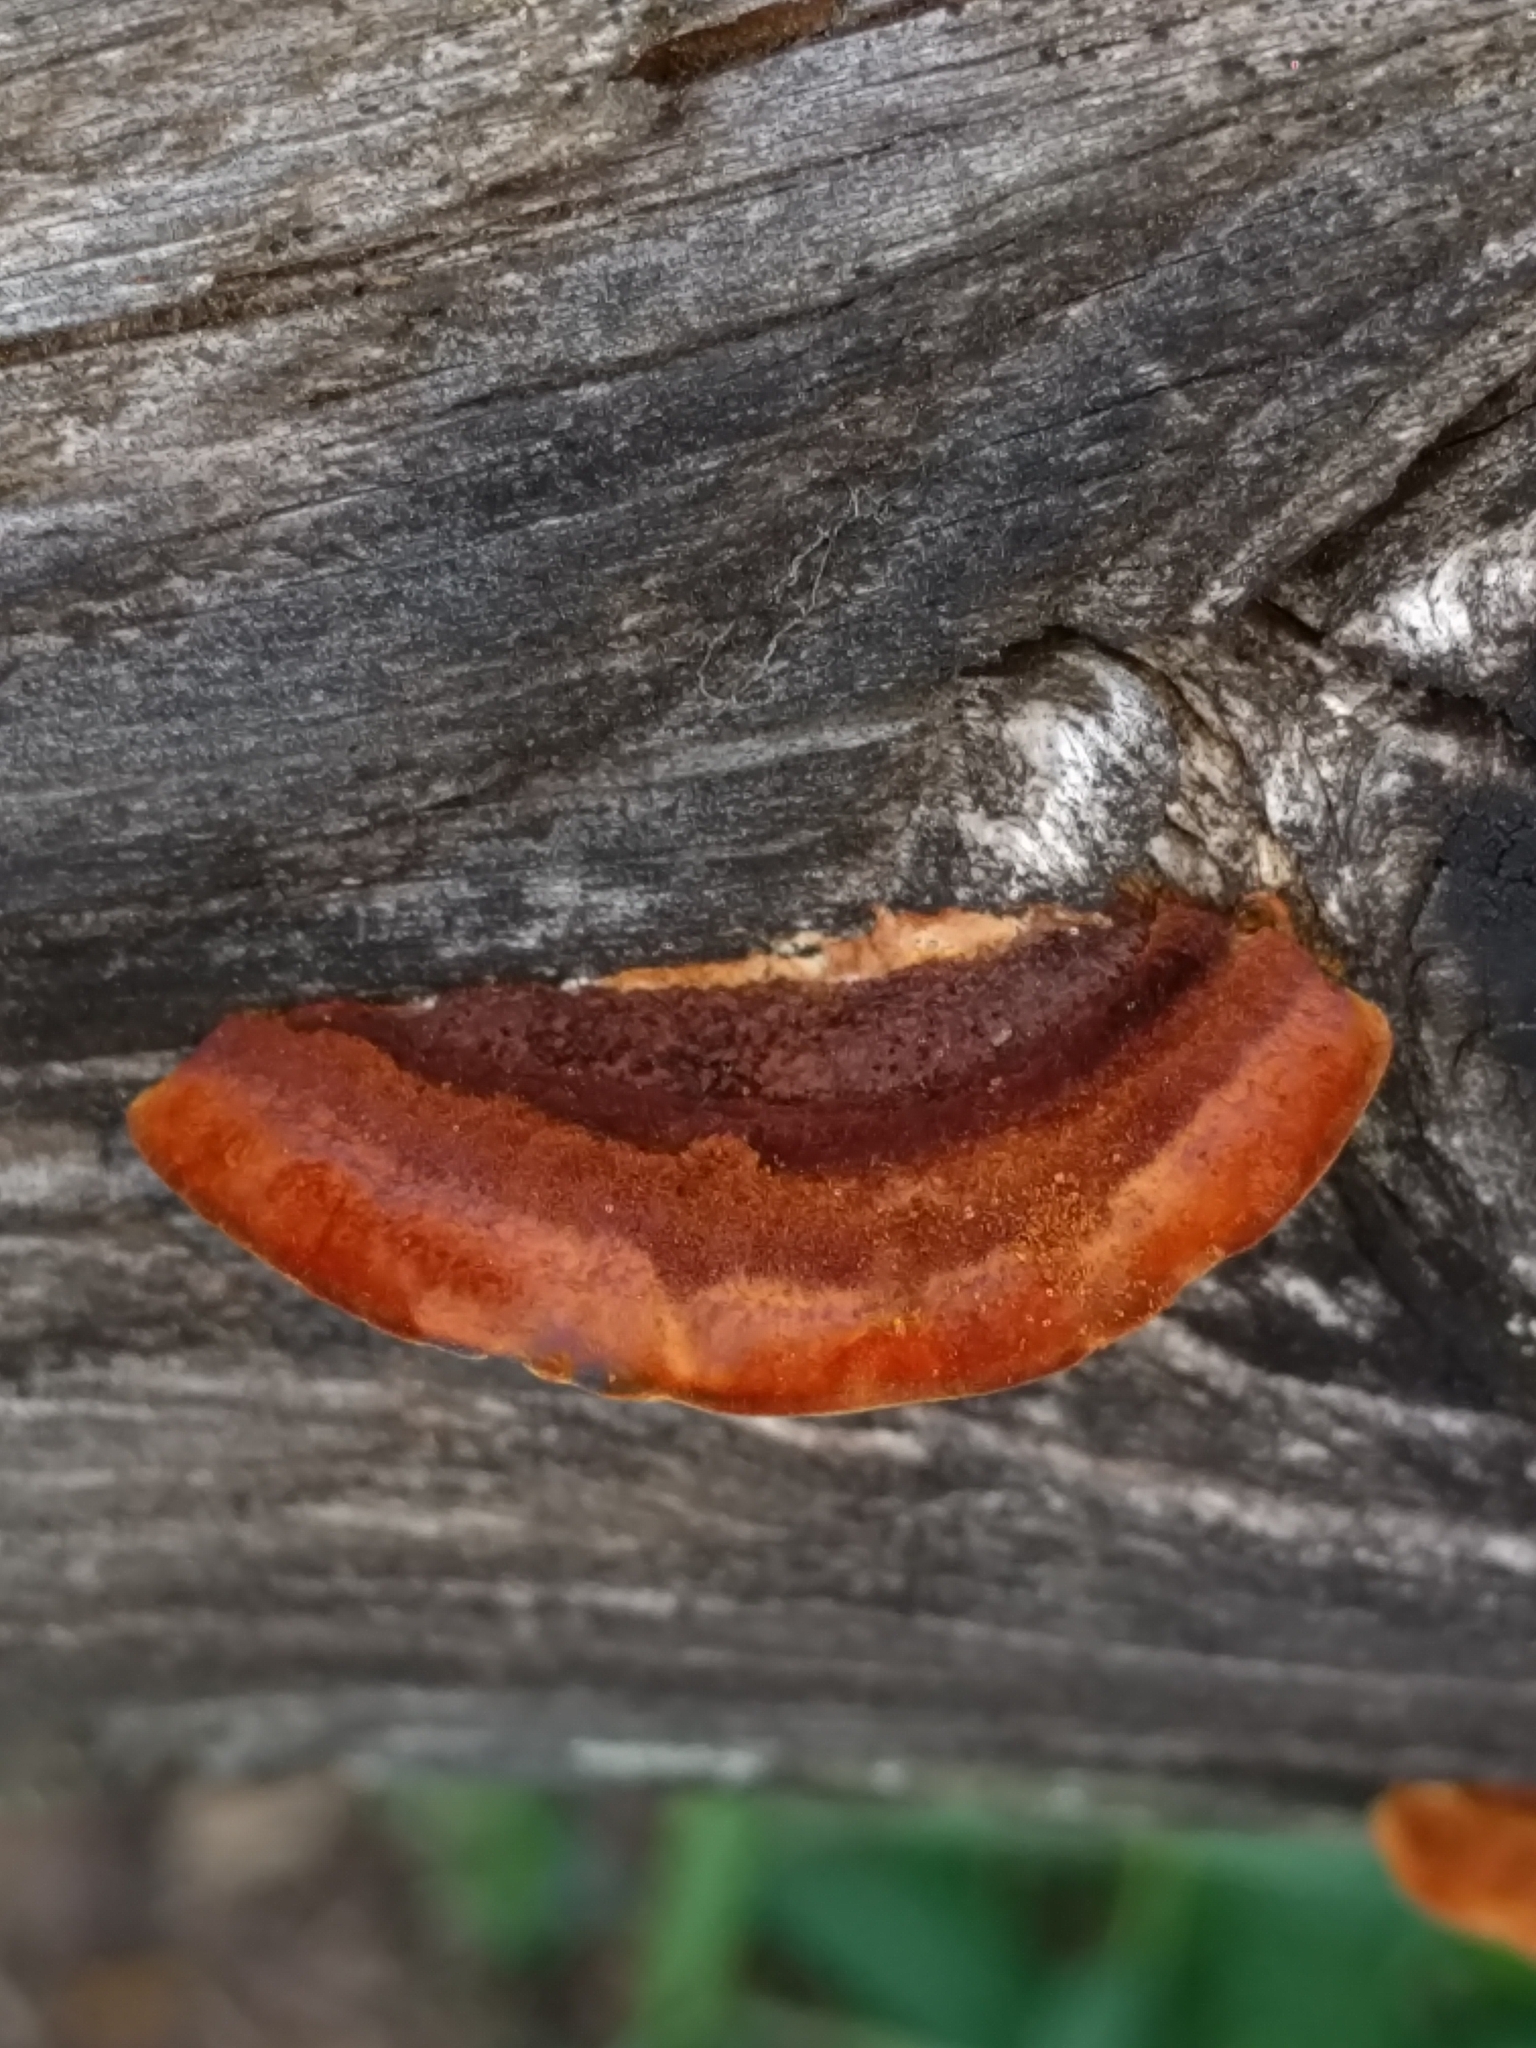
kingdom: Fungi
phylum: Basidiomycota
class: Agaricomycetes
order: Gloeophyllales
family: Gloeophyllaceae
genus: Gloeophyllum
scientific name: Gloeophyllum sepiarium
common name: Conifer mazegill
